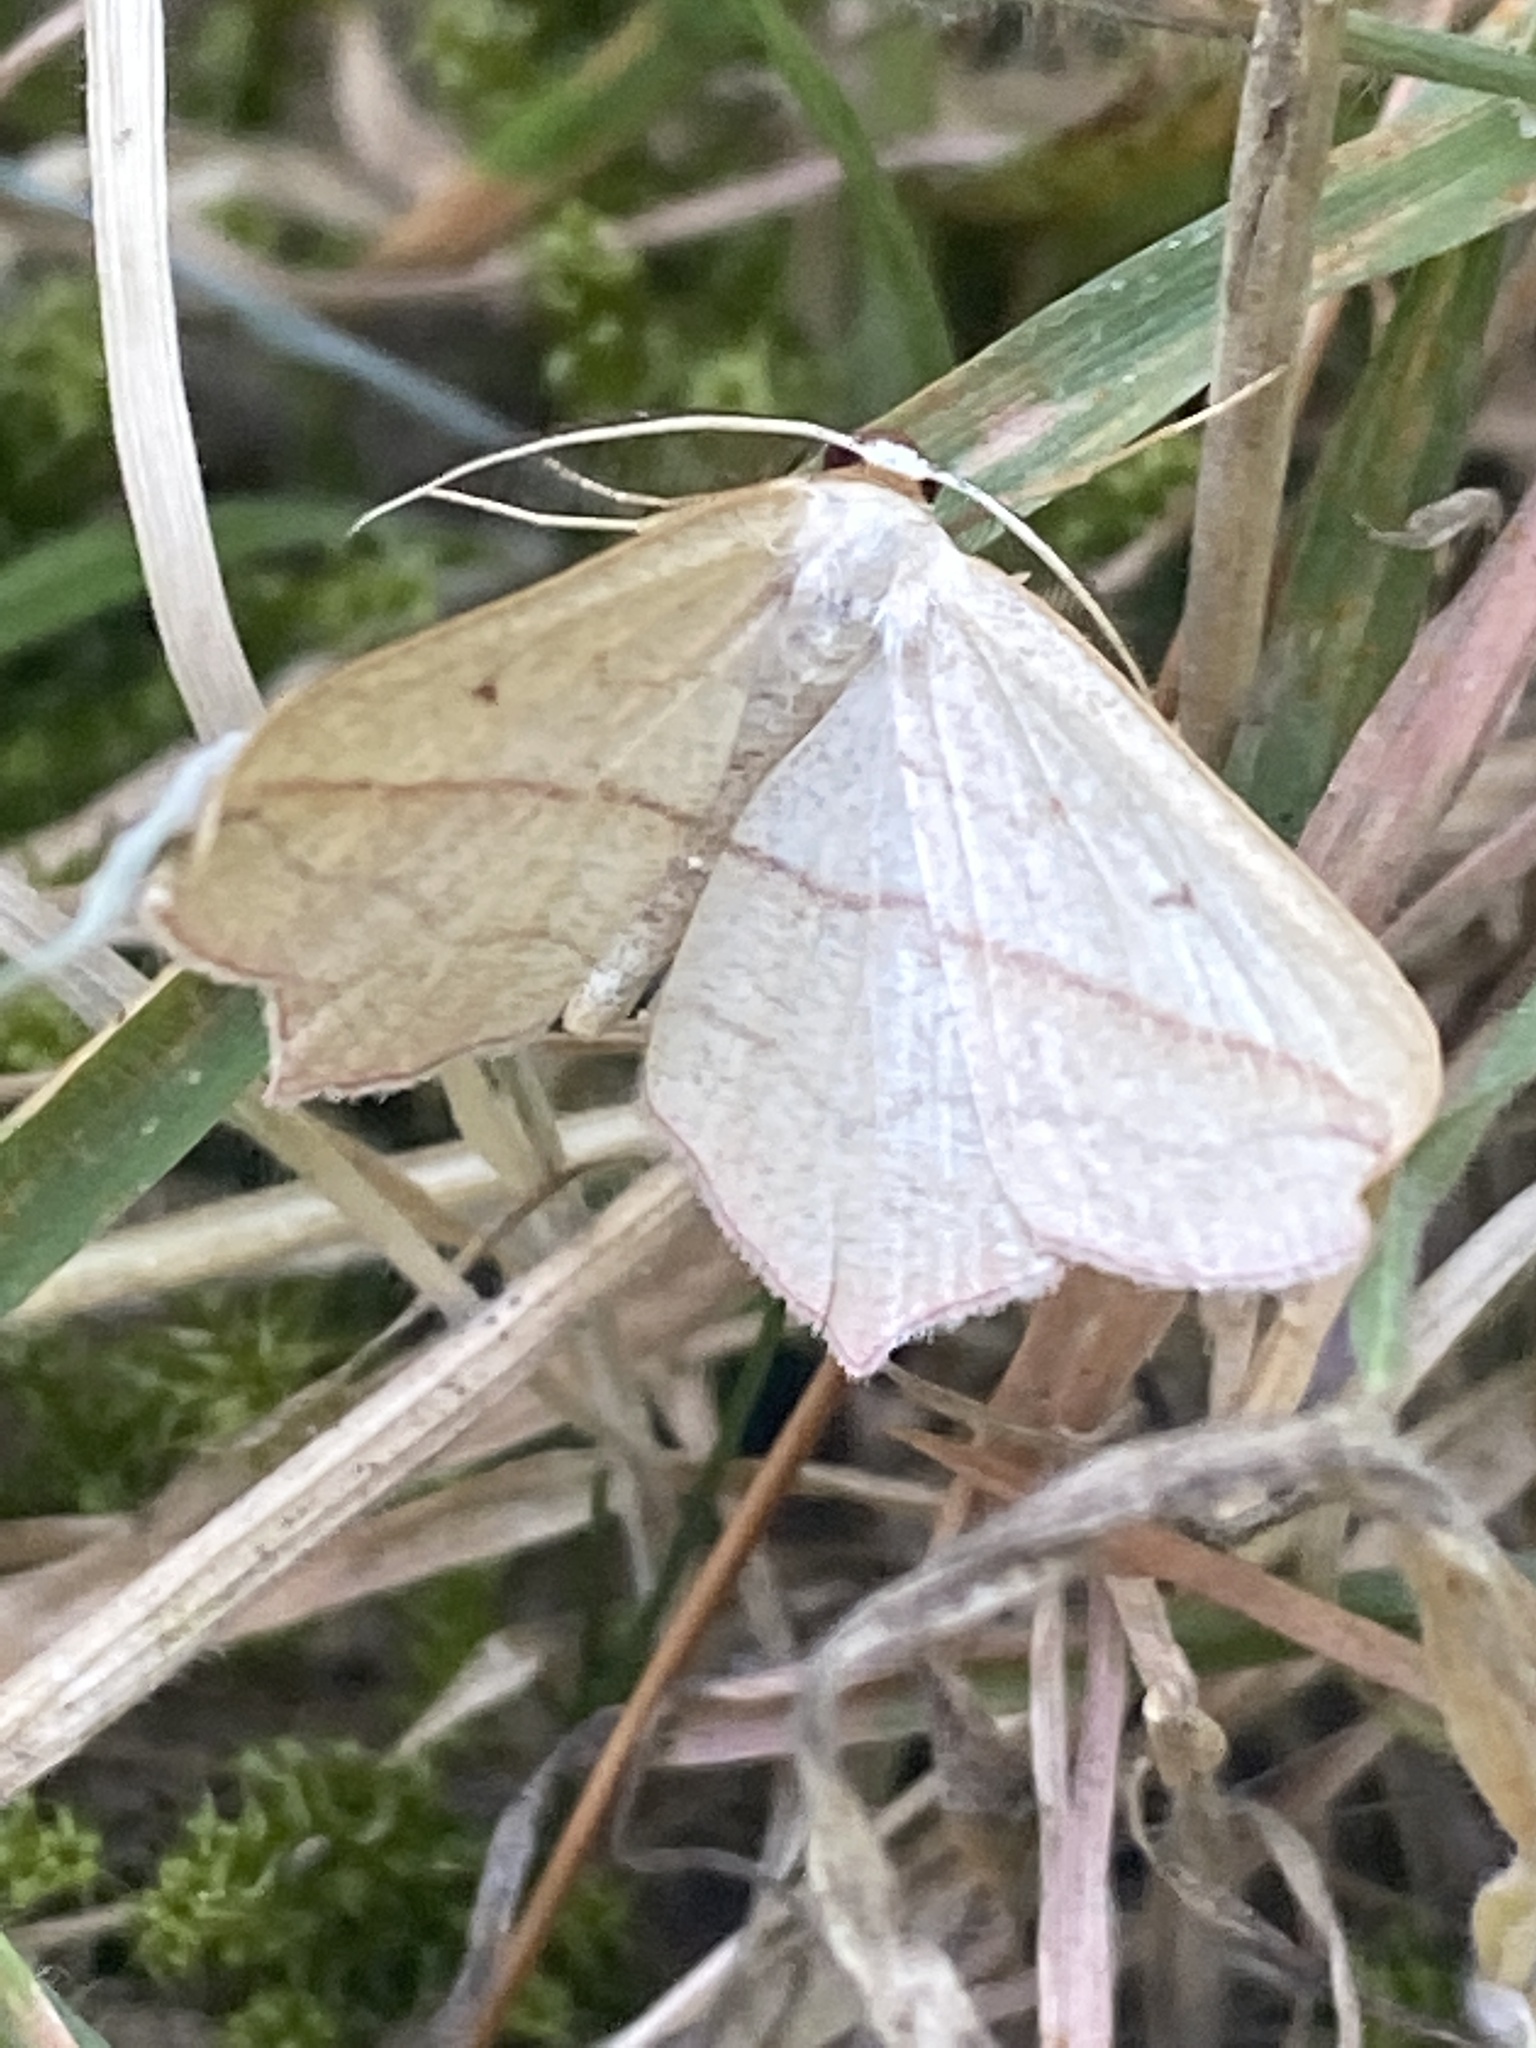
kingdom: Animalia
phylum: Arthropoda
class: Insecta
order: Lepidoptera
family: Geometridae
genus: Timandra
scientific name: Timandra comae
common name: Blood-vein
